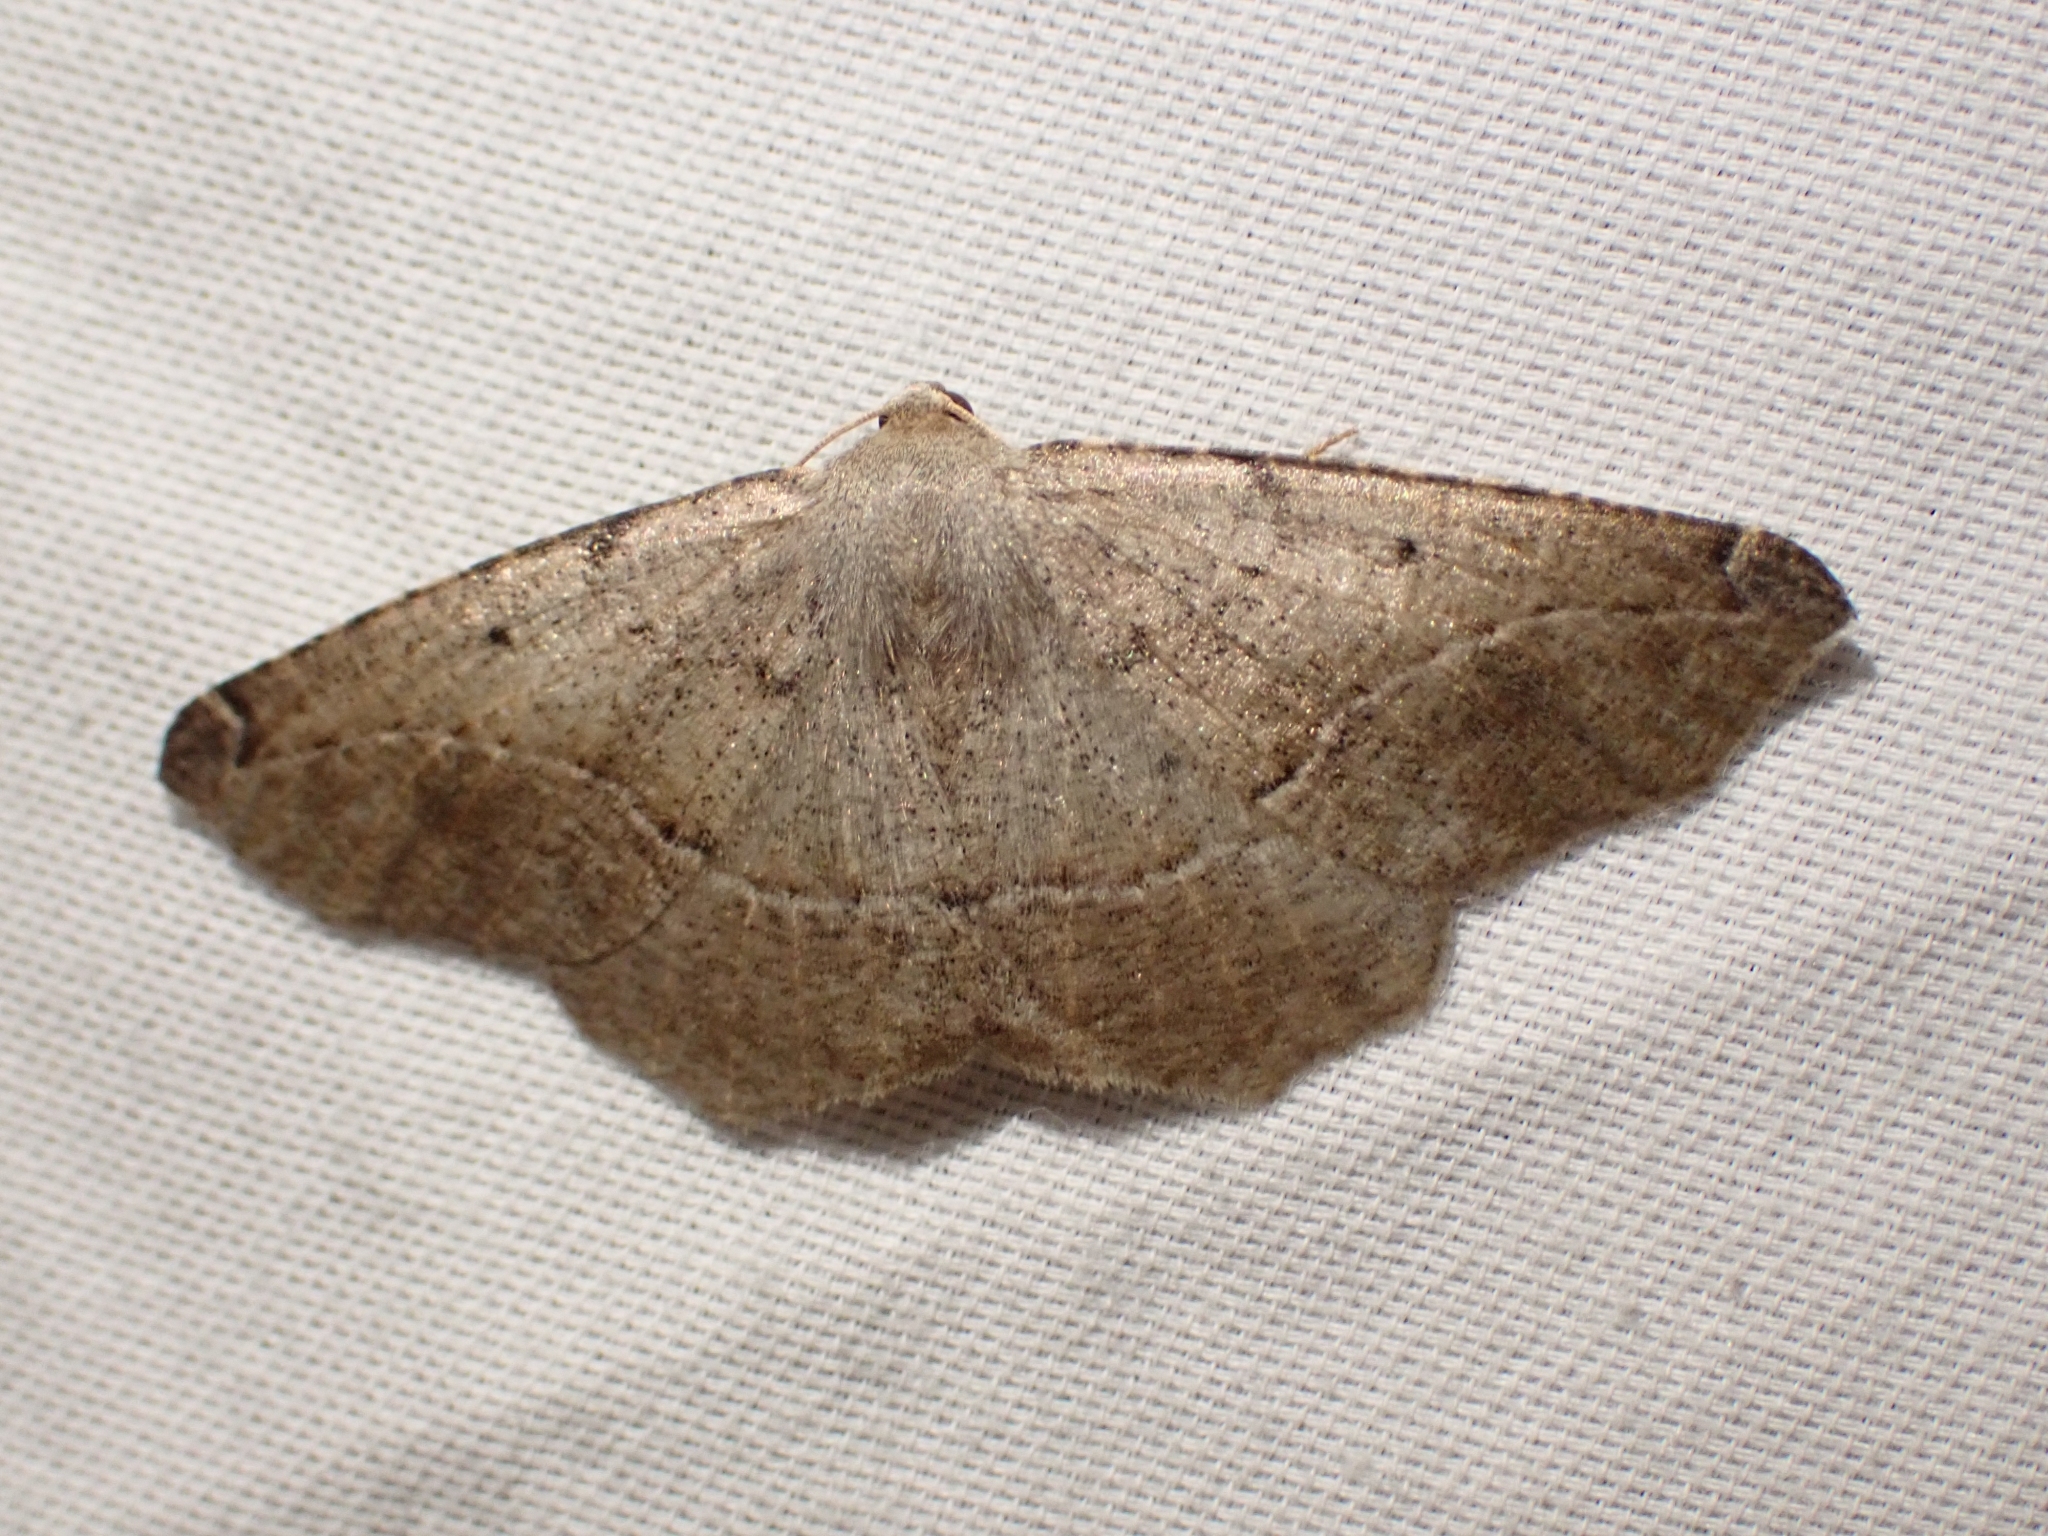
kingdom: Animalia
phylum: Arthropoda
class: Insecta
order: Lepidoptera
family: Geometridae
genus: Prochoerodes
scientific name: Prochoerodes forficaria
